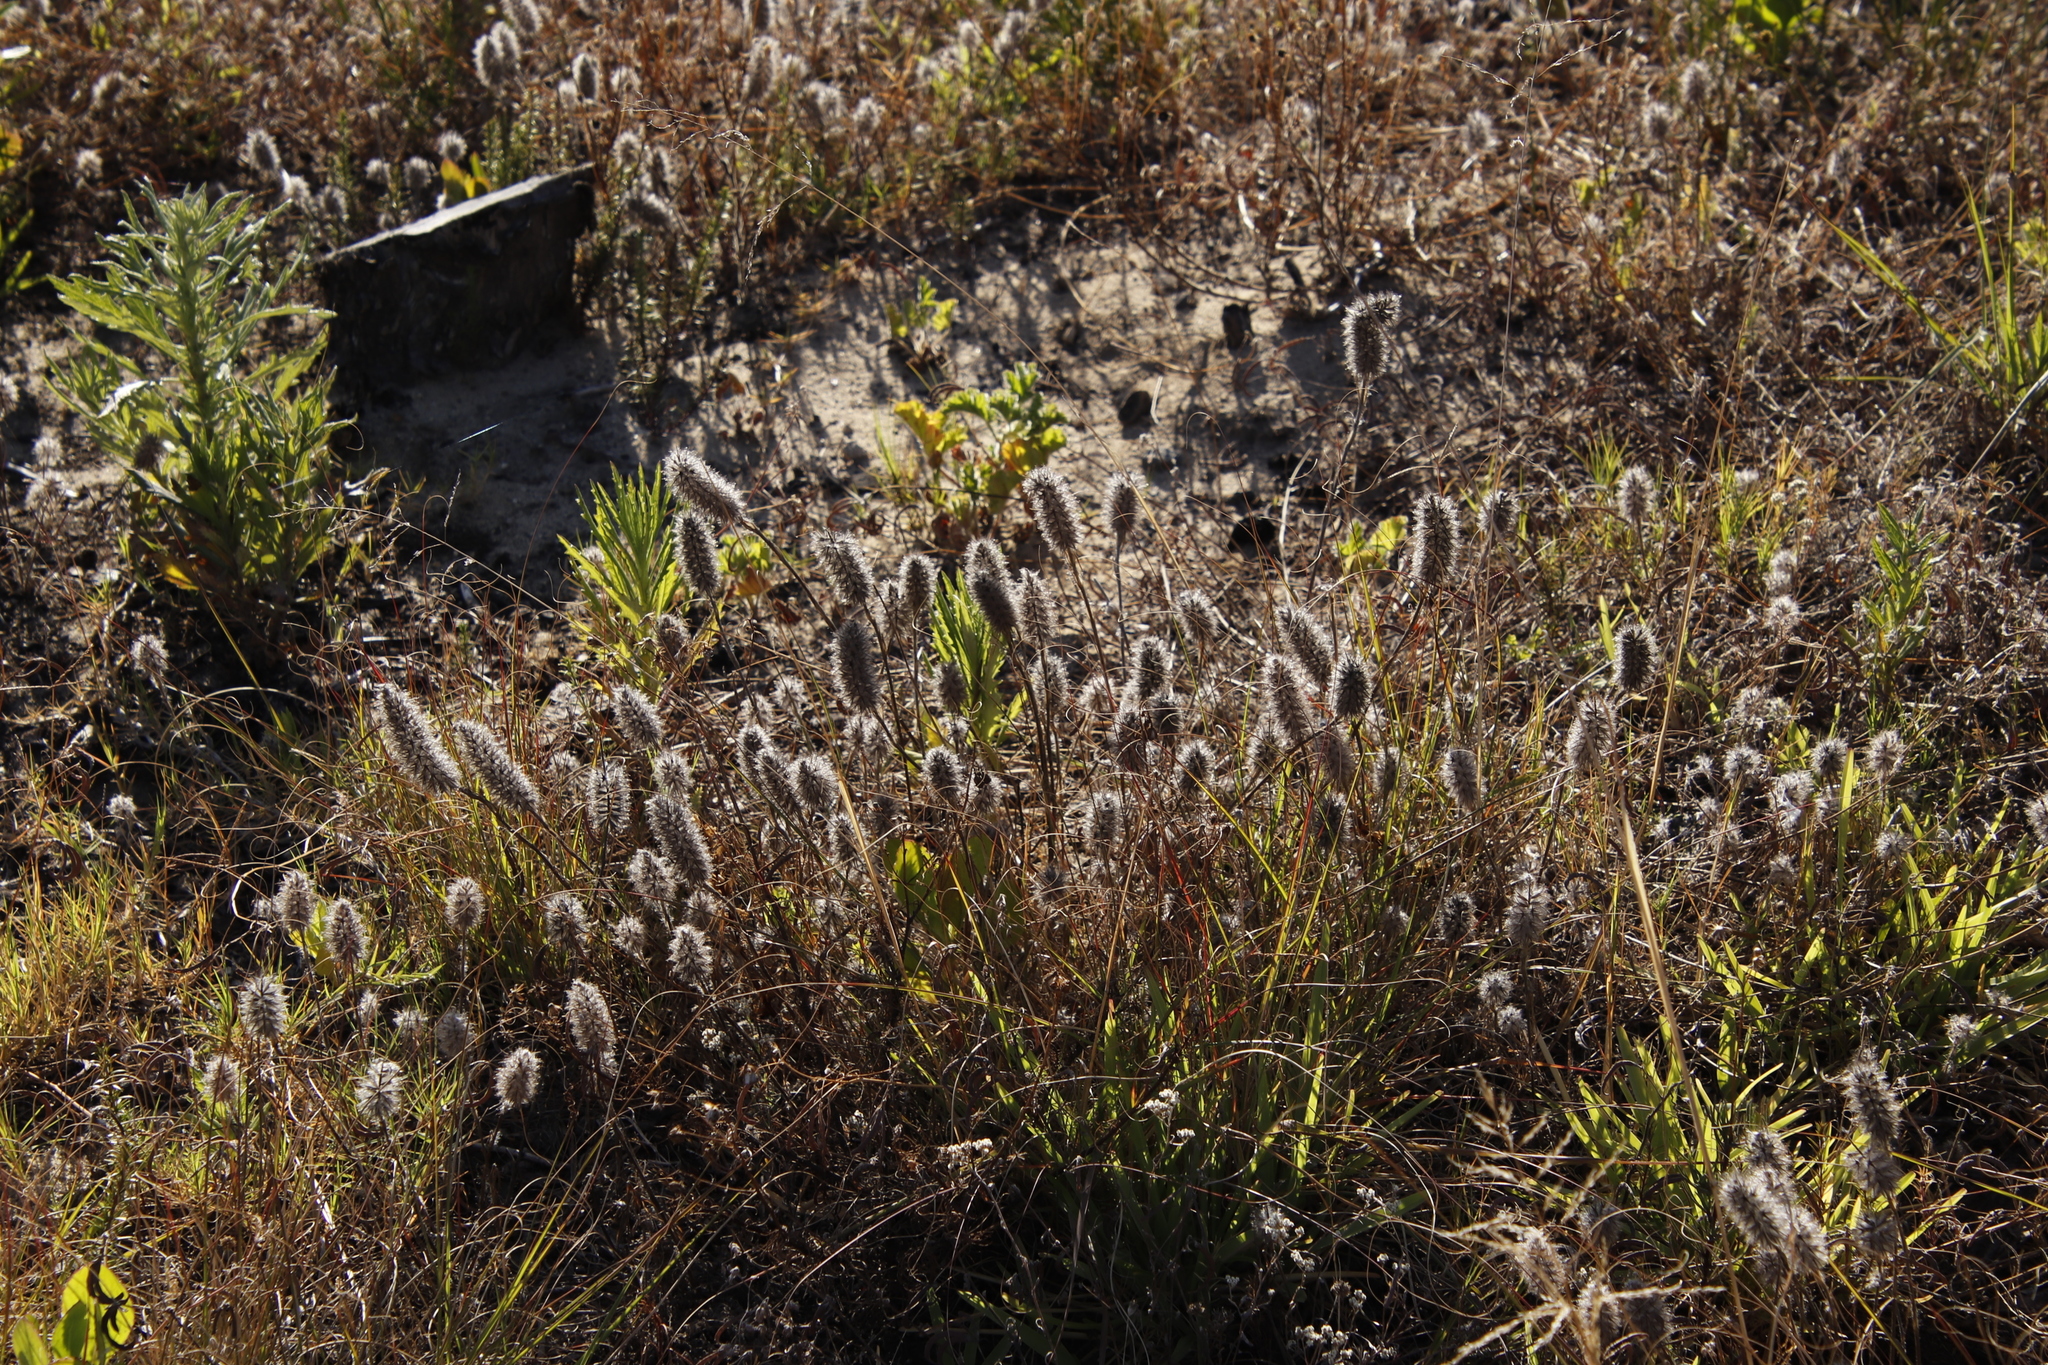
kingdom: Plantae
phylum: Tracheophyta
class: Magnoliopsida
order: Fabales
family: Fabaceae
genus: Trifolium
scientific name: Trifolium angustifolium
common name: Narrow clover
